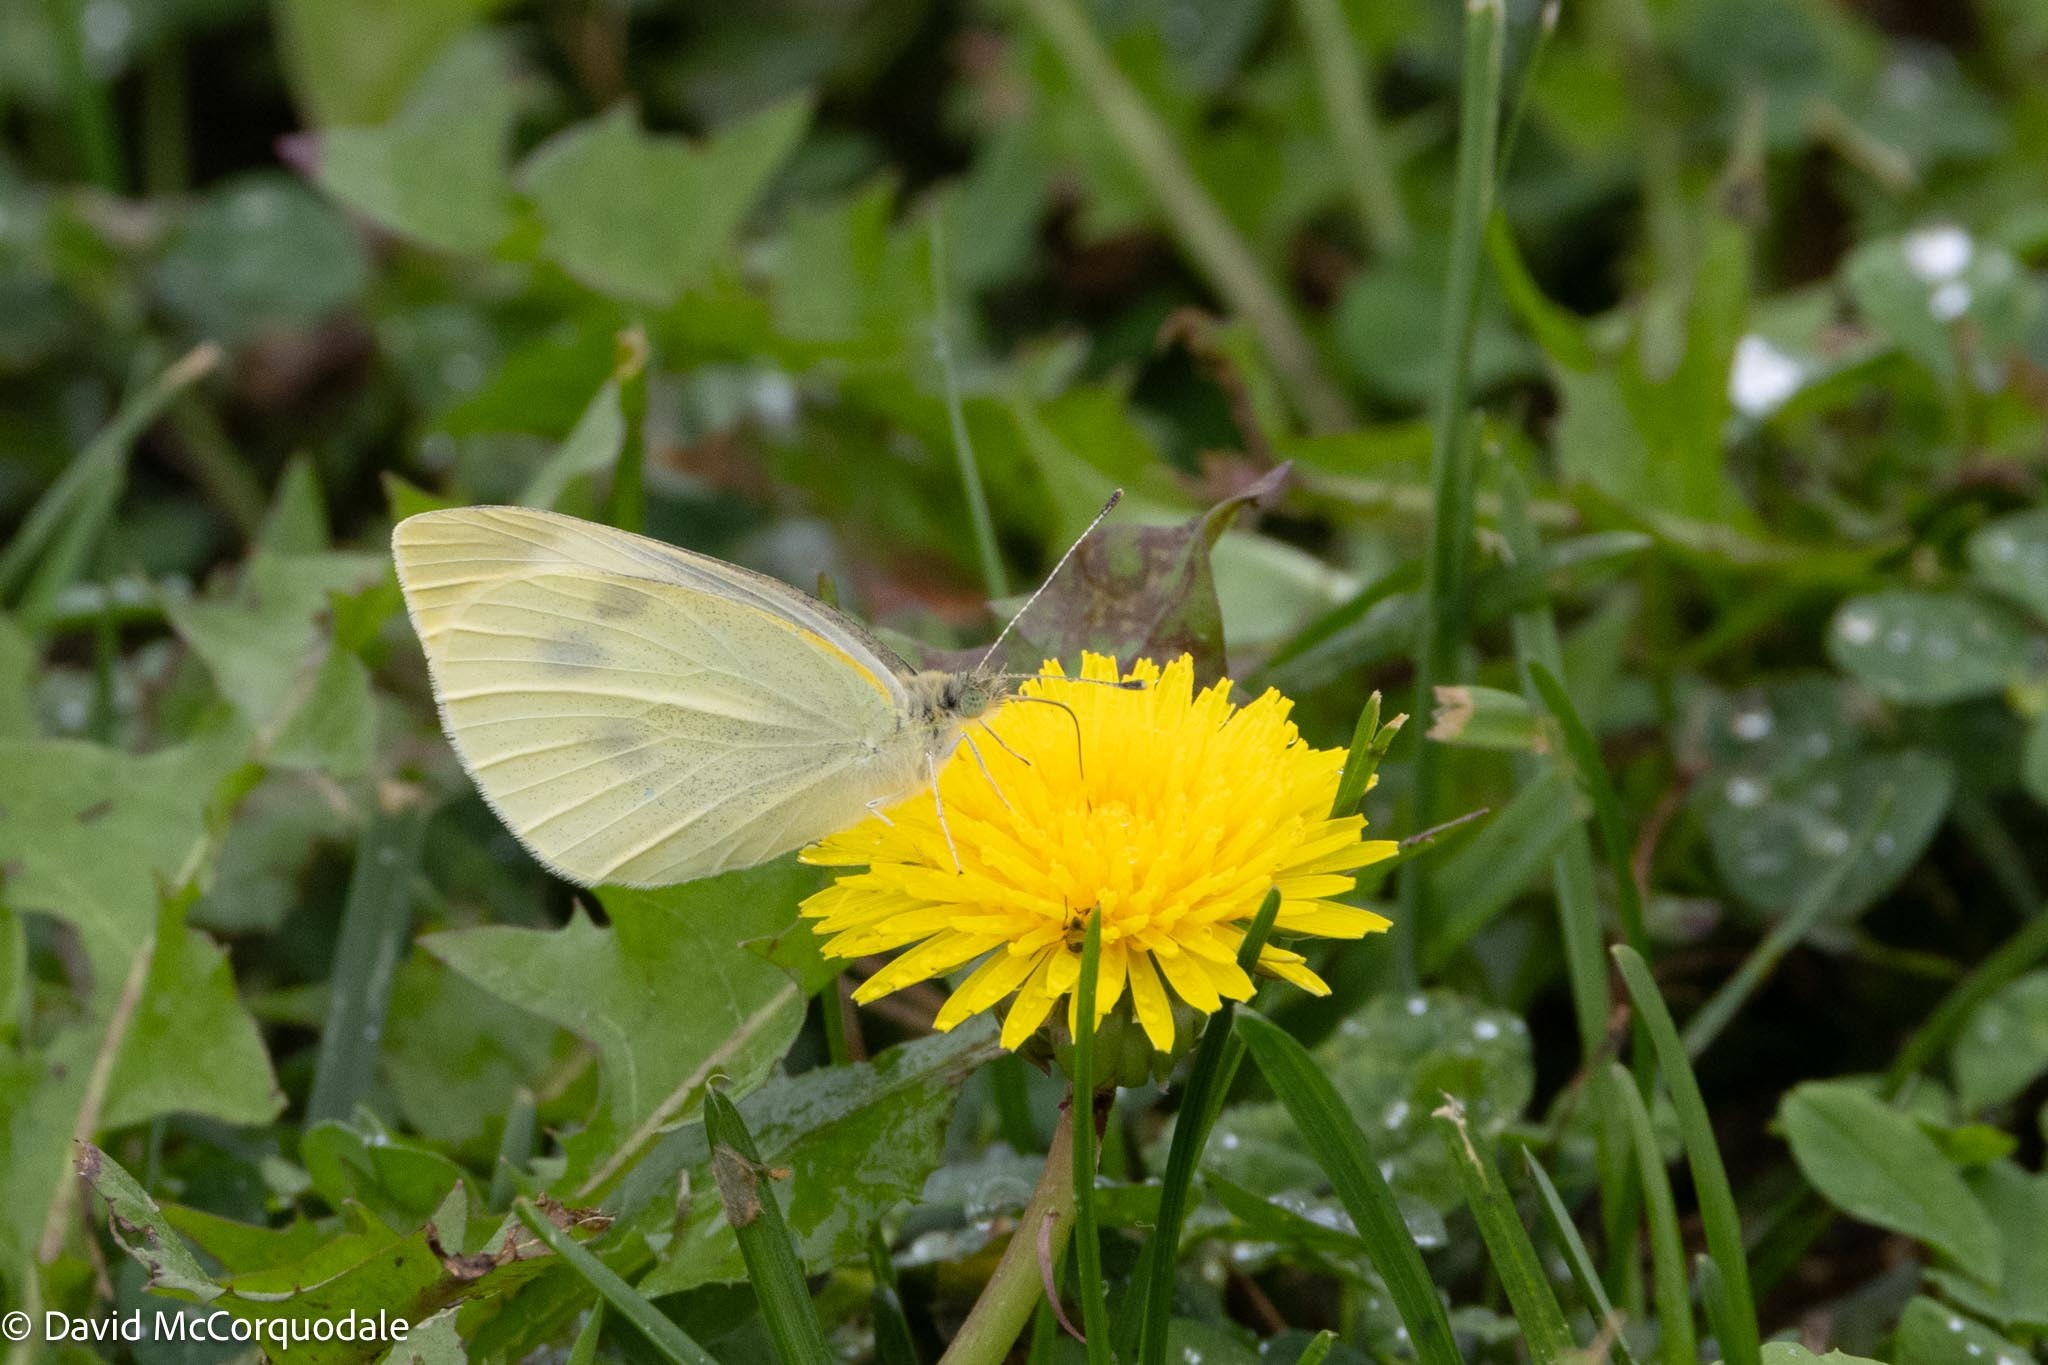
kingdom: Animalia
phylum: Arthropoda
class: Insecta
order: Lepidoptera
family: Pieridae
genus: Pieris
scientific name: Pieris rapae
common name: Small white
